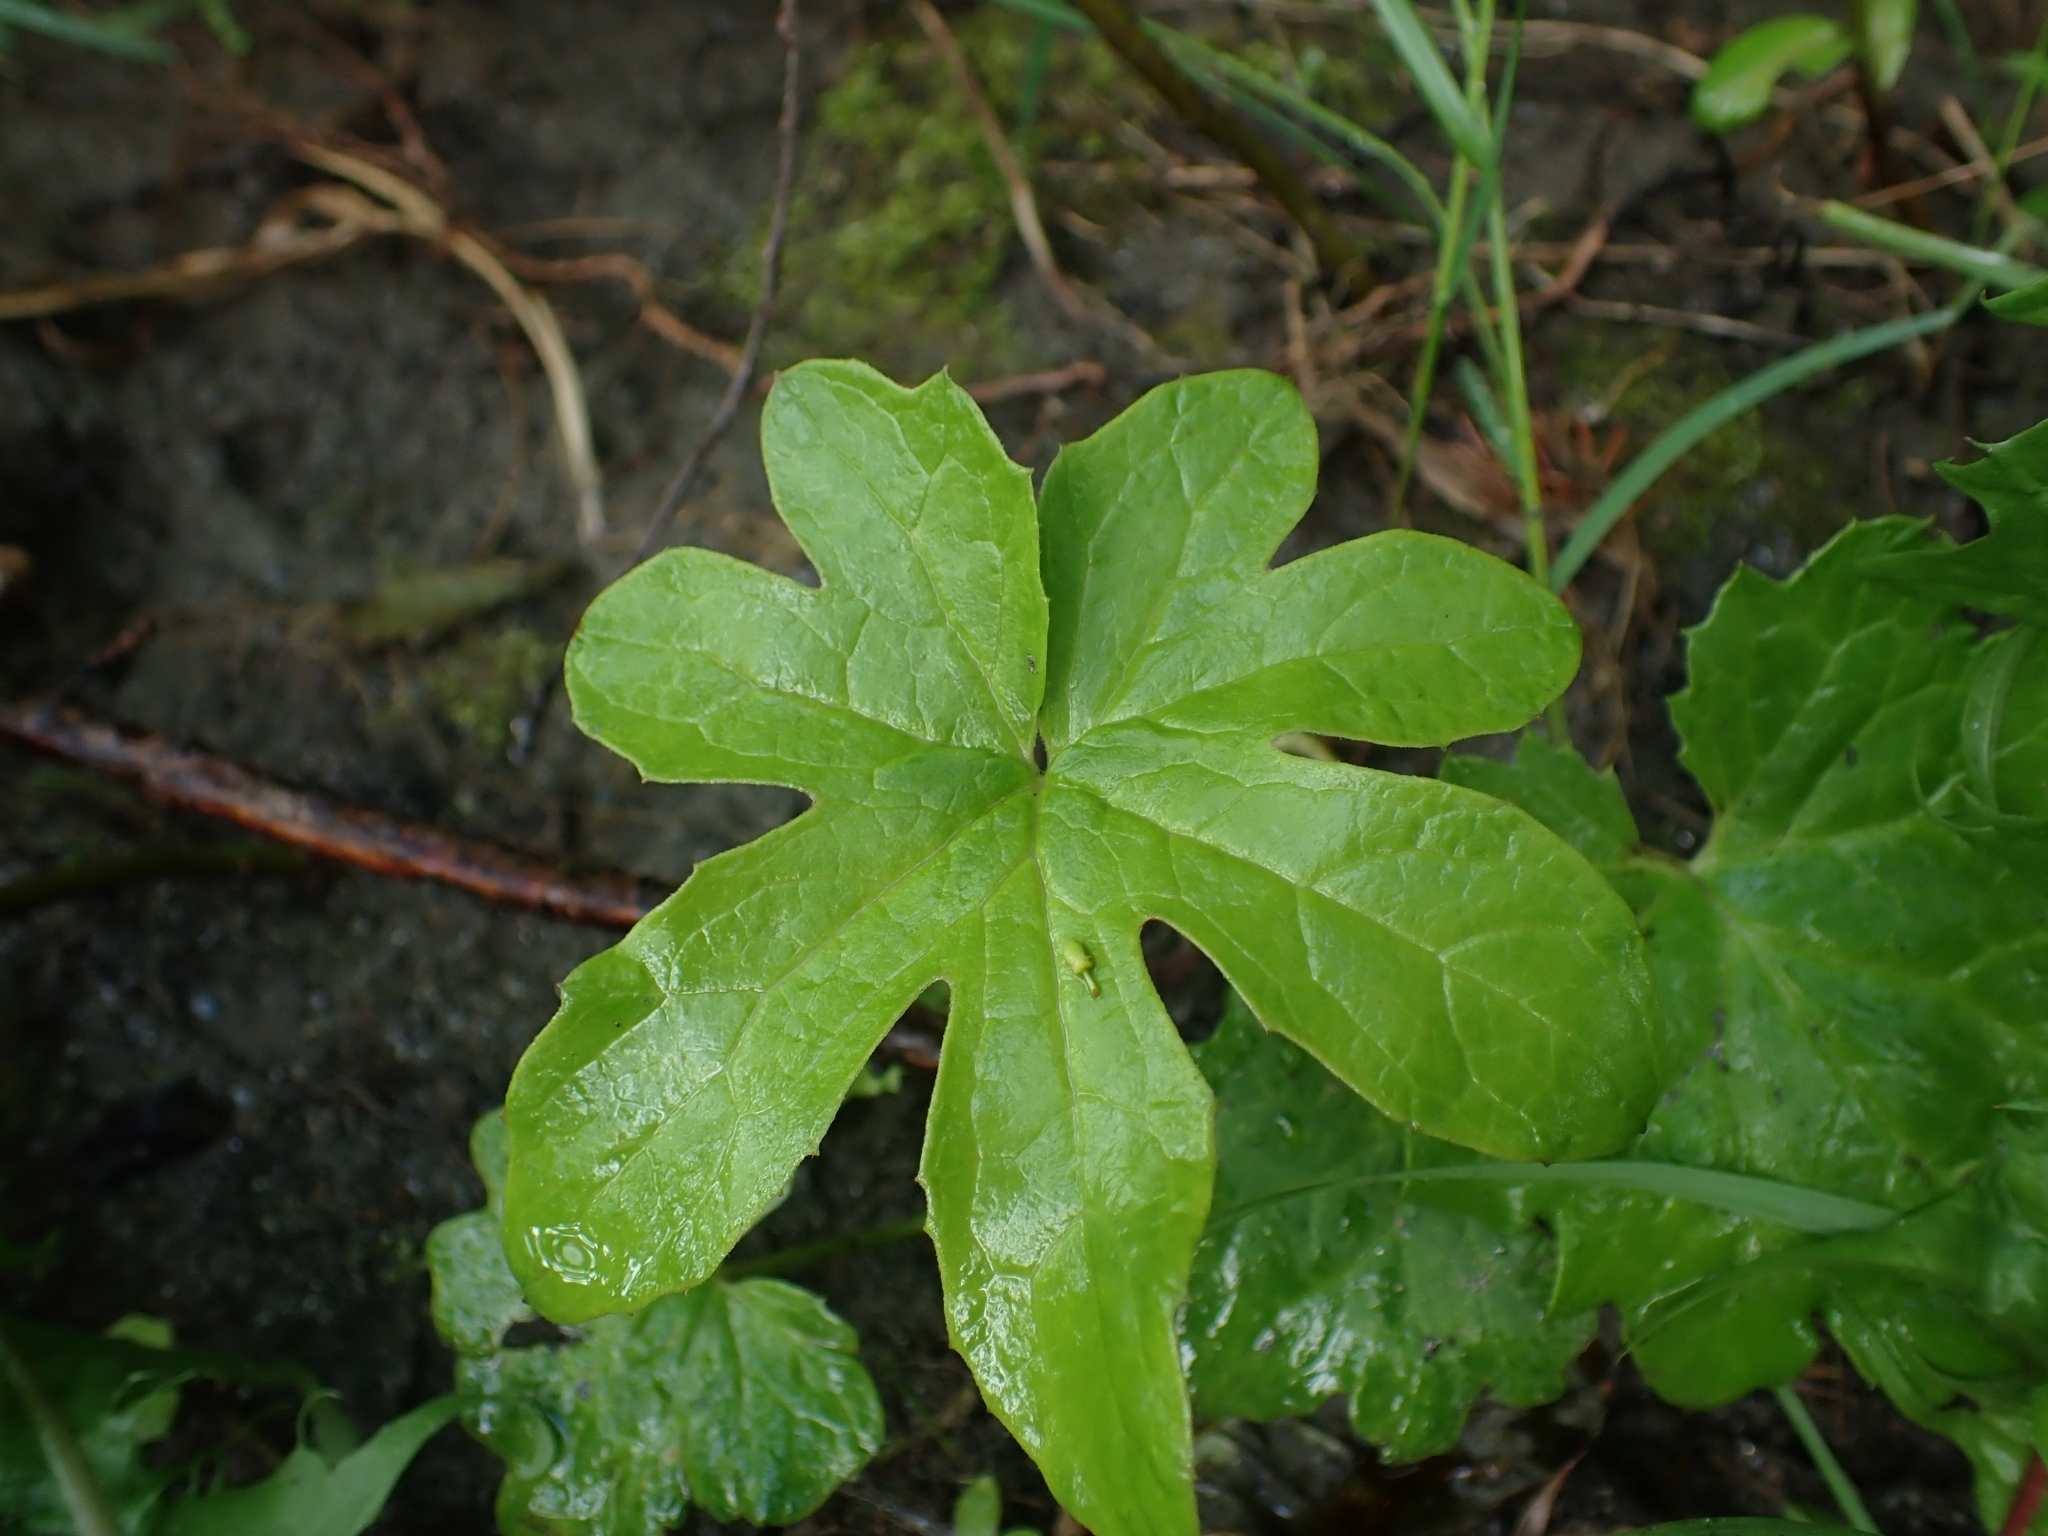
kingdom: Plantae
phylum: Tracheophyta
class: Magnoliopsida
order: Asterales
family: Asteraceae
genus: Petasites
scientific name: Petasites frigidus
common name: Arctic butterbur
